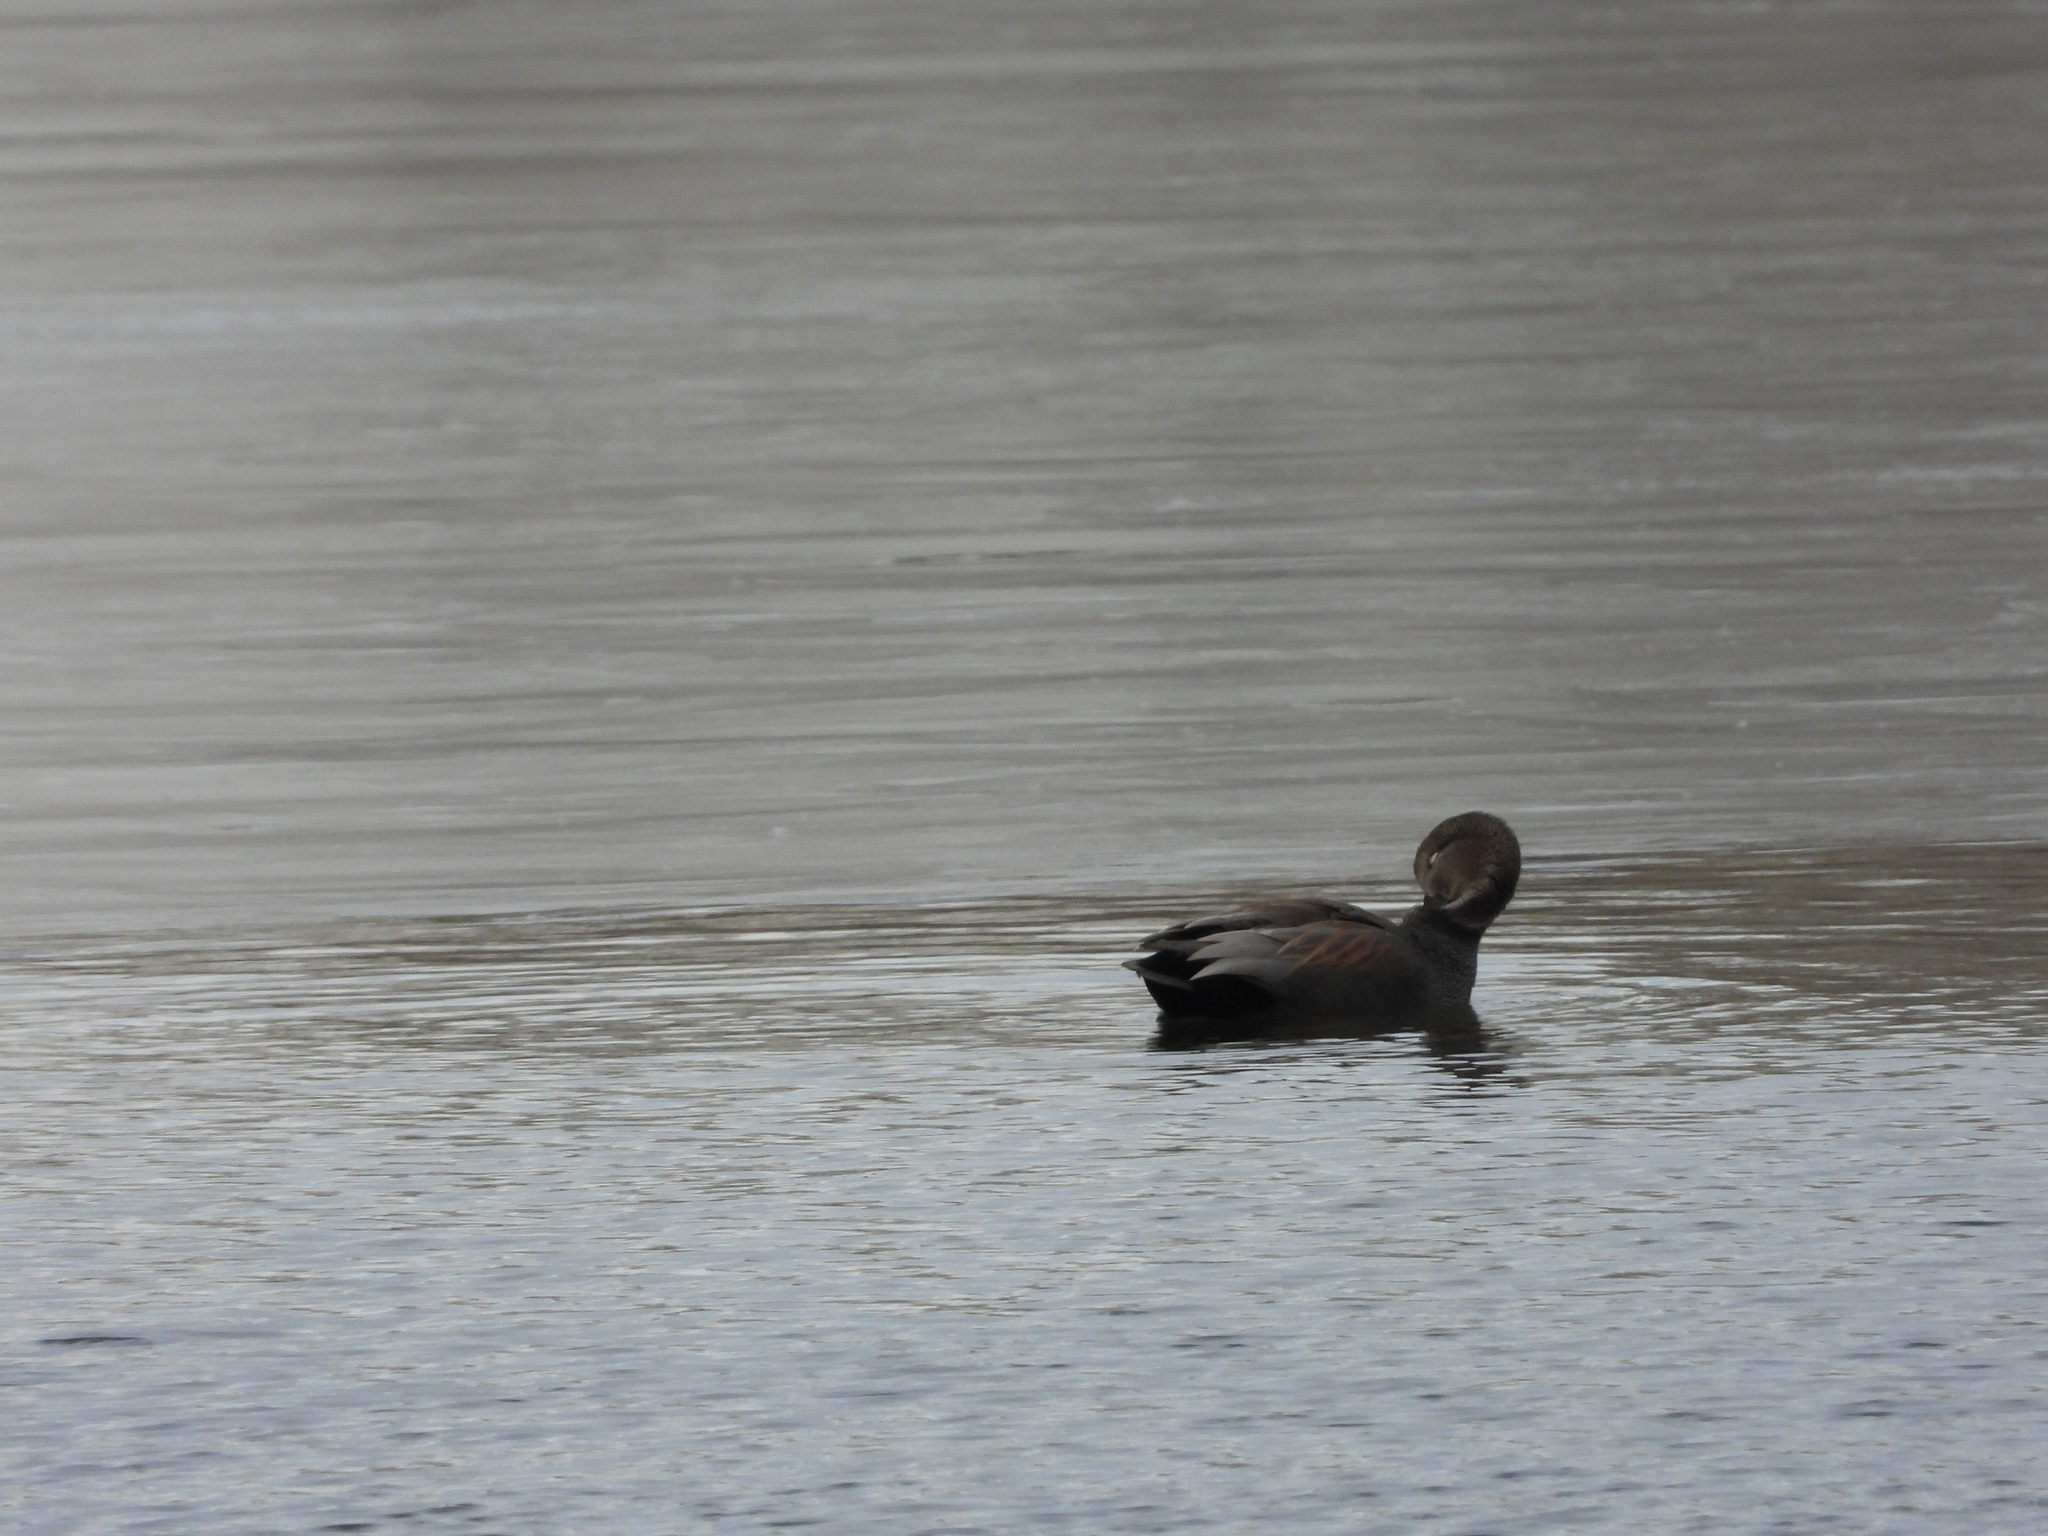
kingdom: Animalia
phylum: Chordata
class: Aves
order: Anseriformes
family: Anatidae
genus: Mareca
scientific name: Mareca strepera
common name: Gadwall
